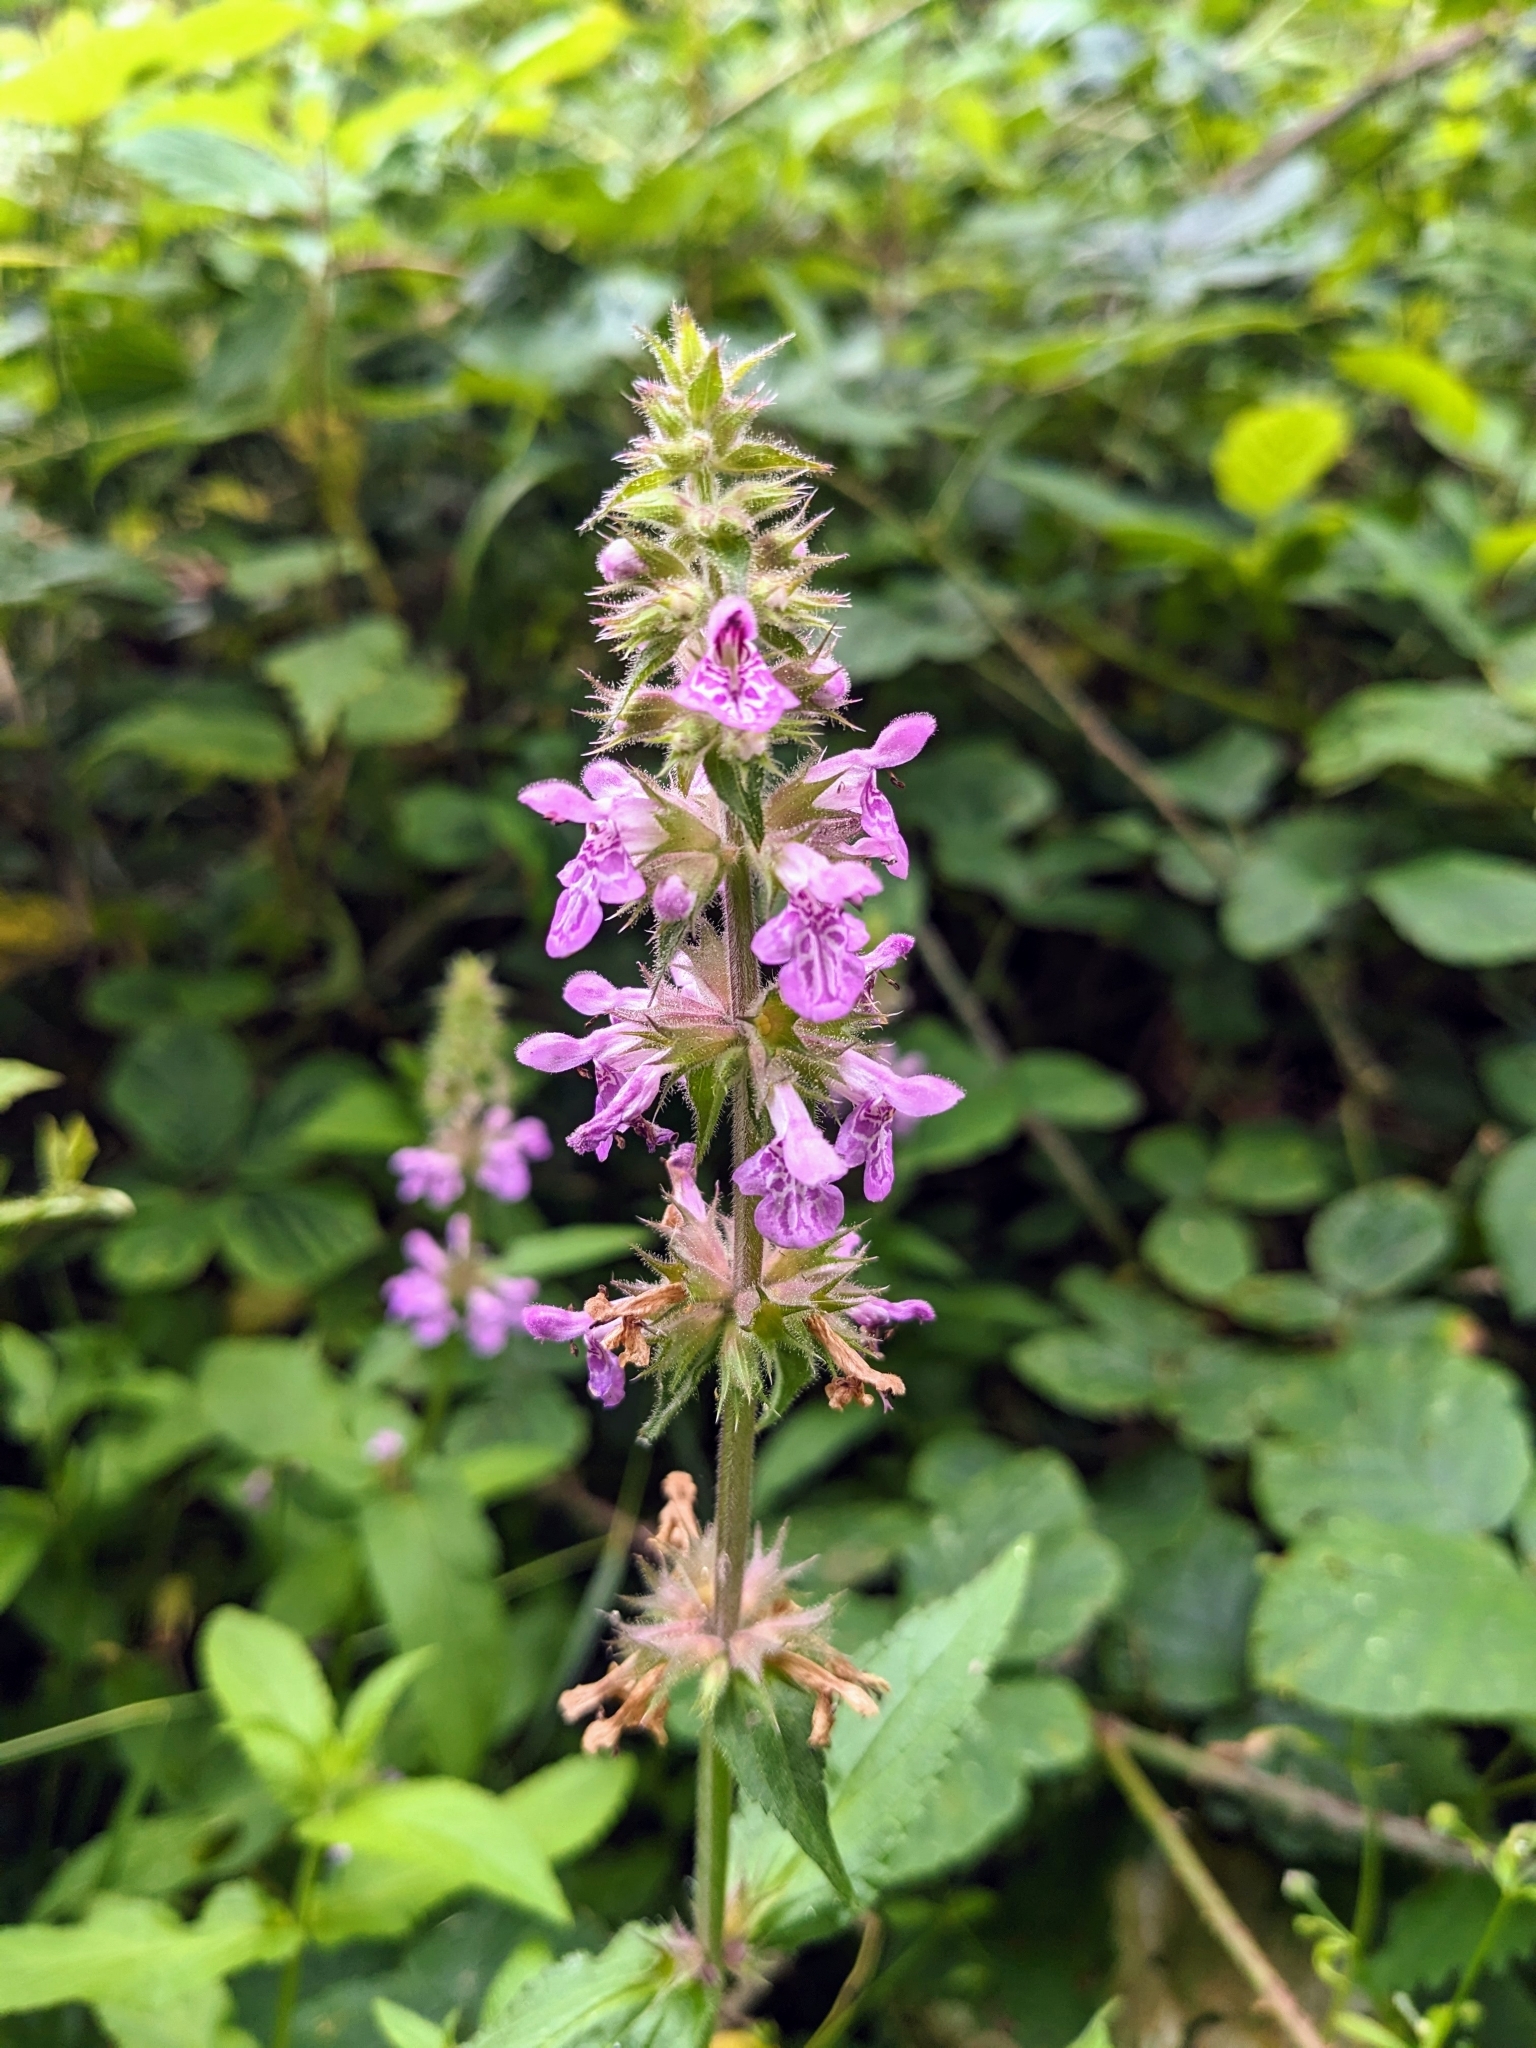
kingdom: Plantae
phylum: Tracheophyta
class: Magnoliopsida
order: Lamiales
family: Lamiaceae
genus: Stachys
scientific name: Stachys palustris
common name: Marsh woundwort
